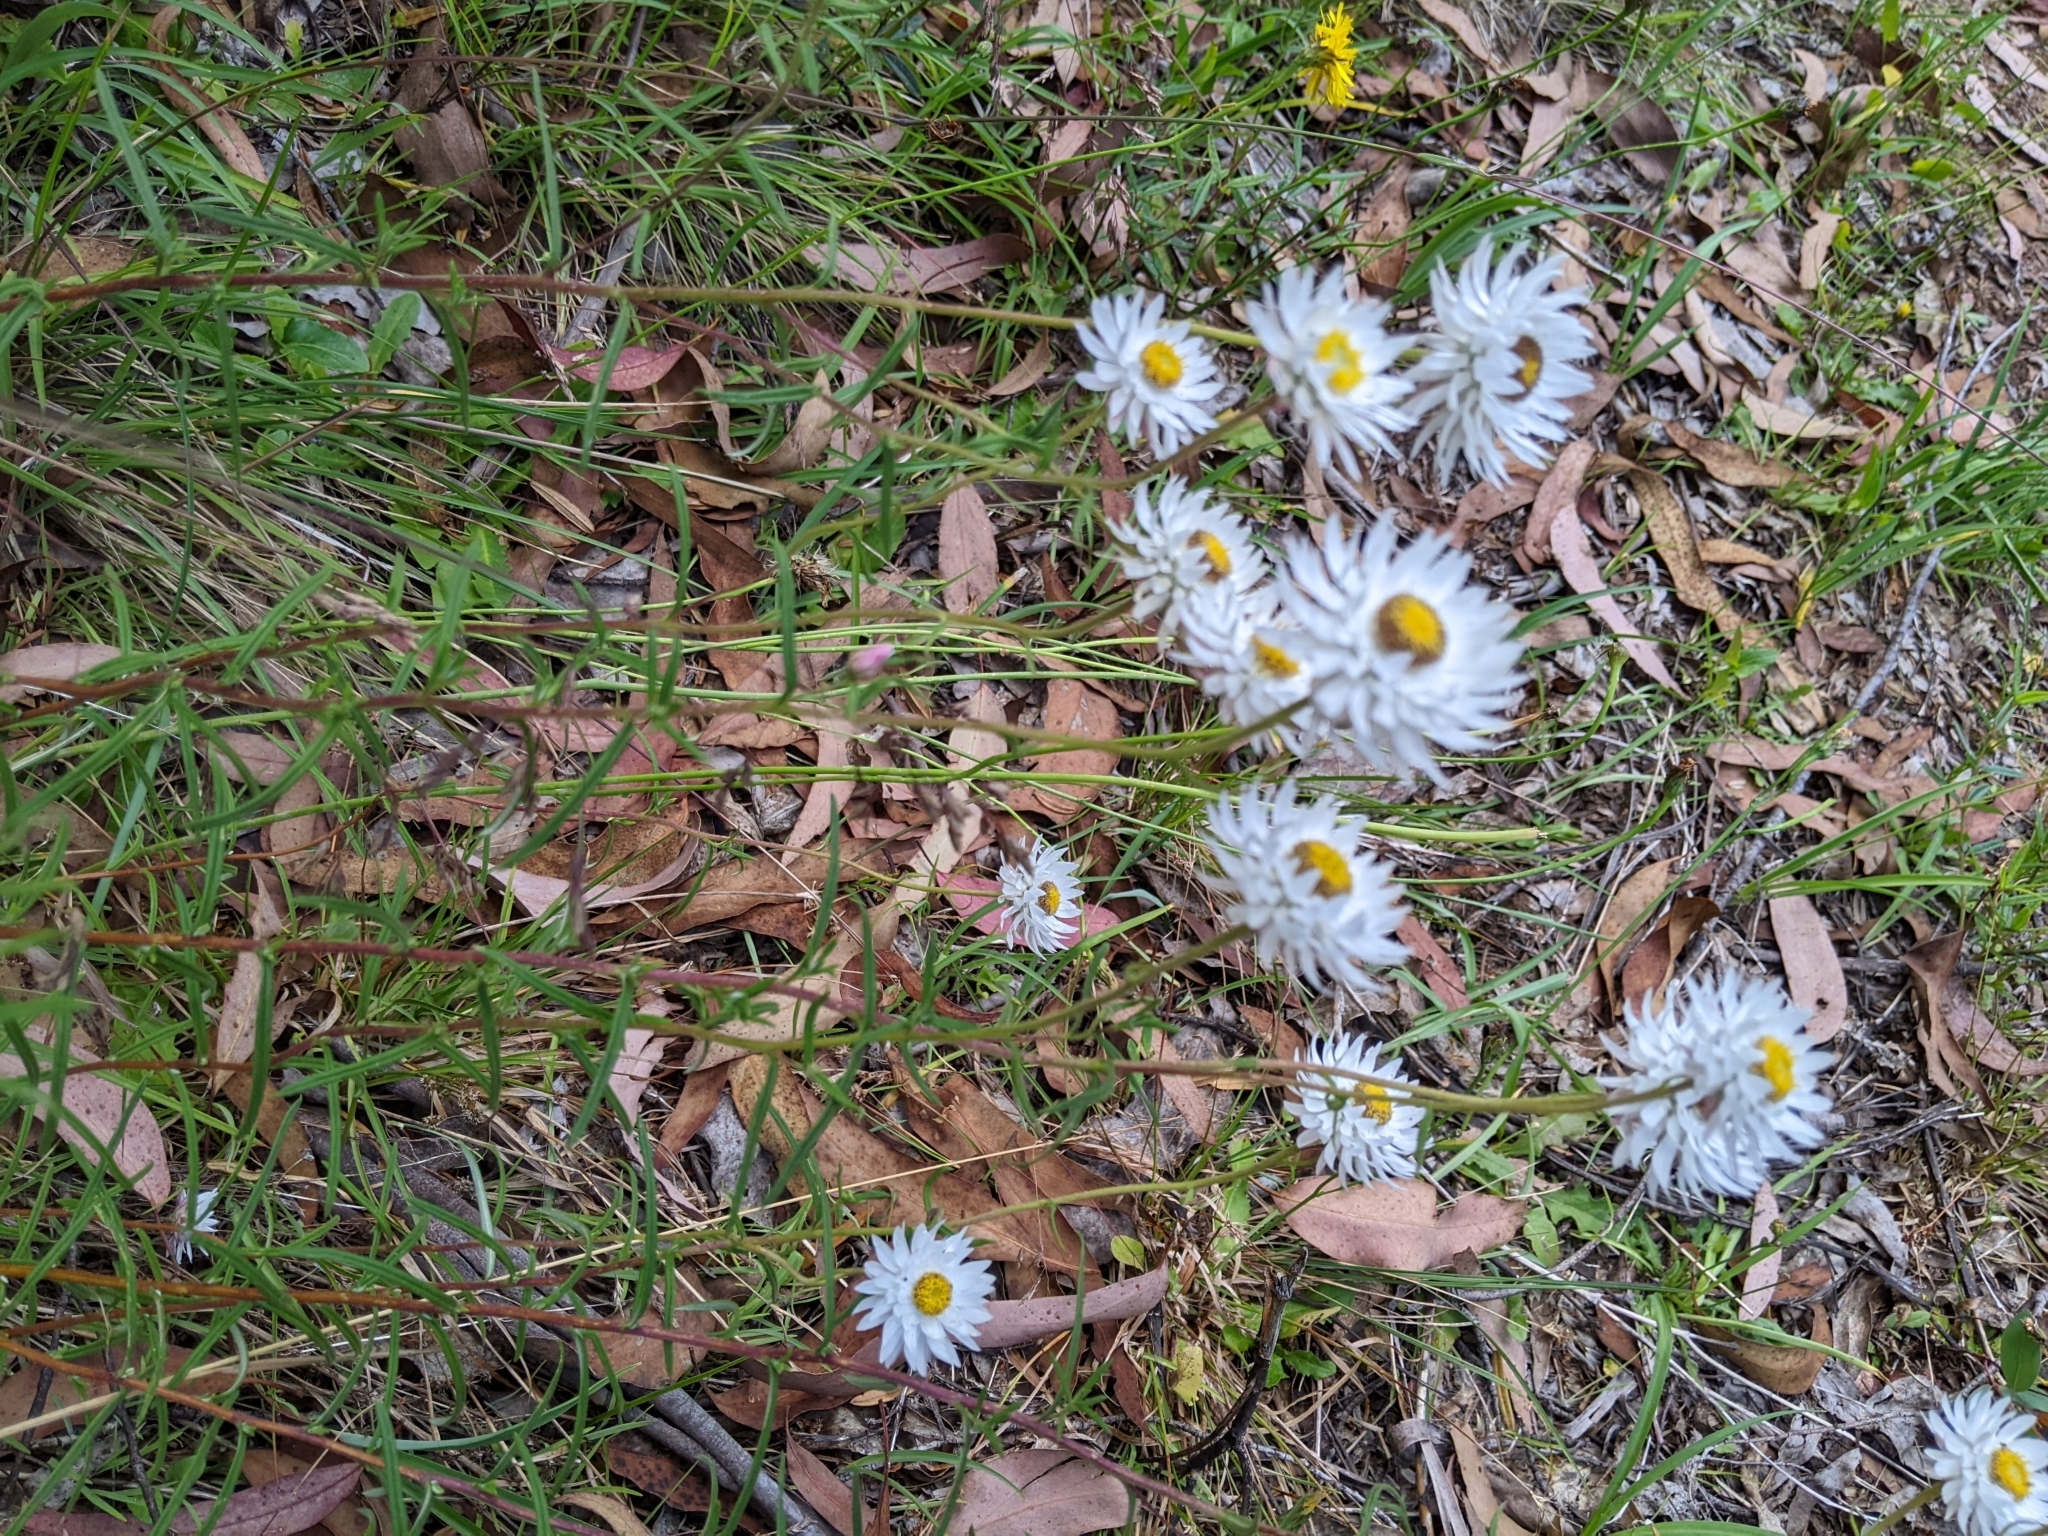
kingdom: Plantae
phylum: Tracheophyta
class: Magnoliopsida
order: Asterales
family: Asteraceae
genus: Helichrysum
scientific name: Helichrysum leucopsideum
